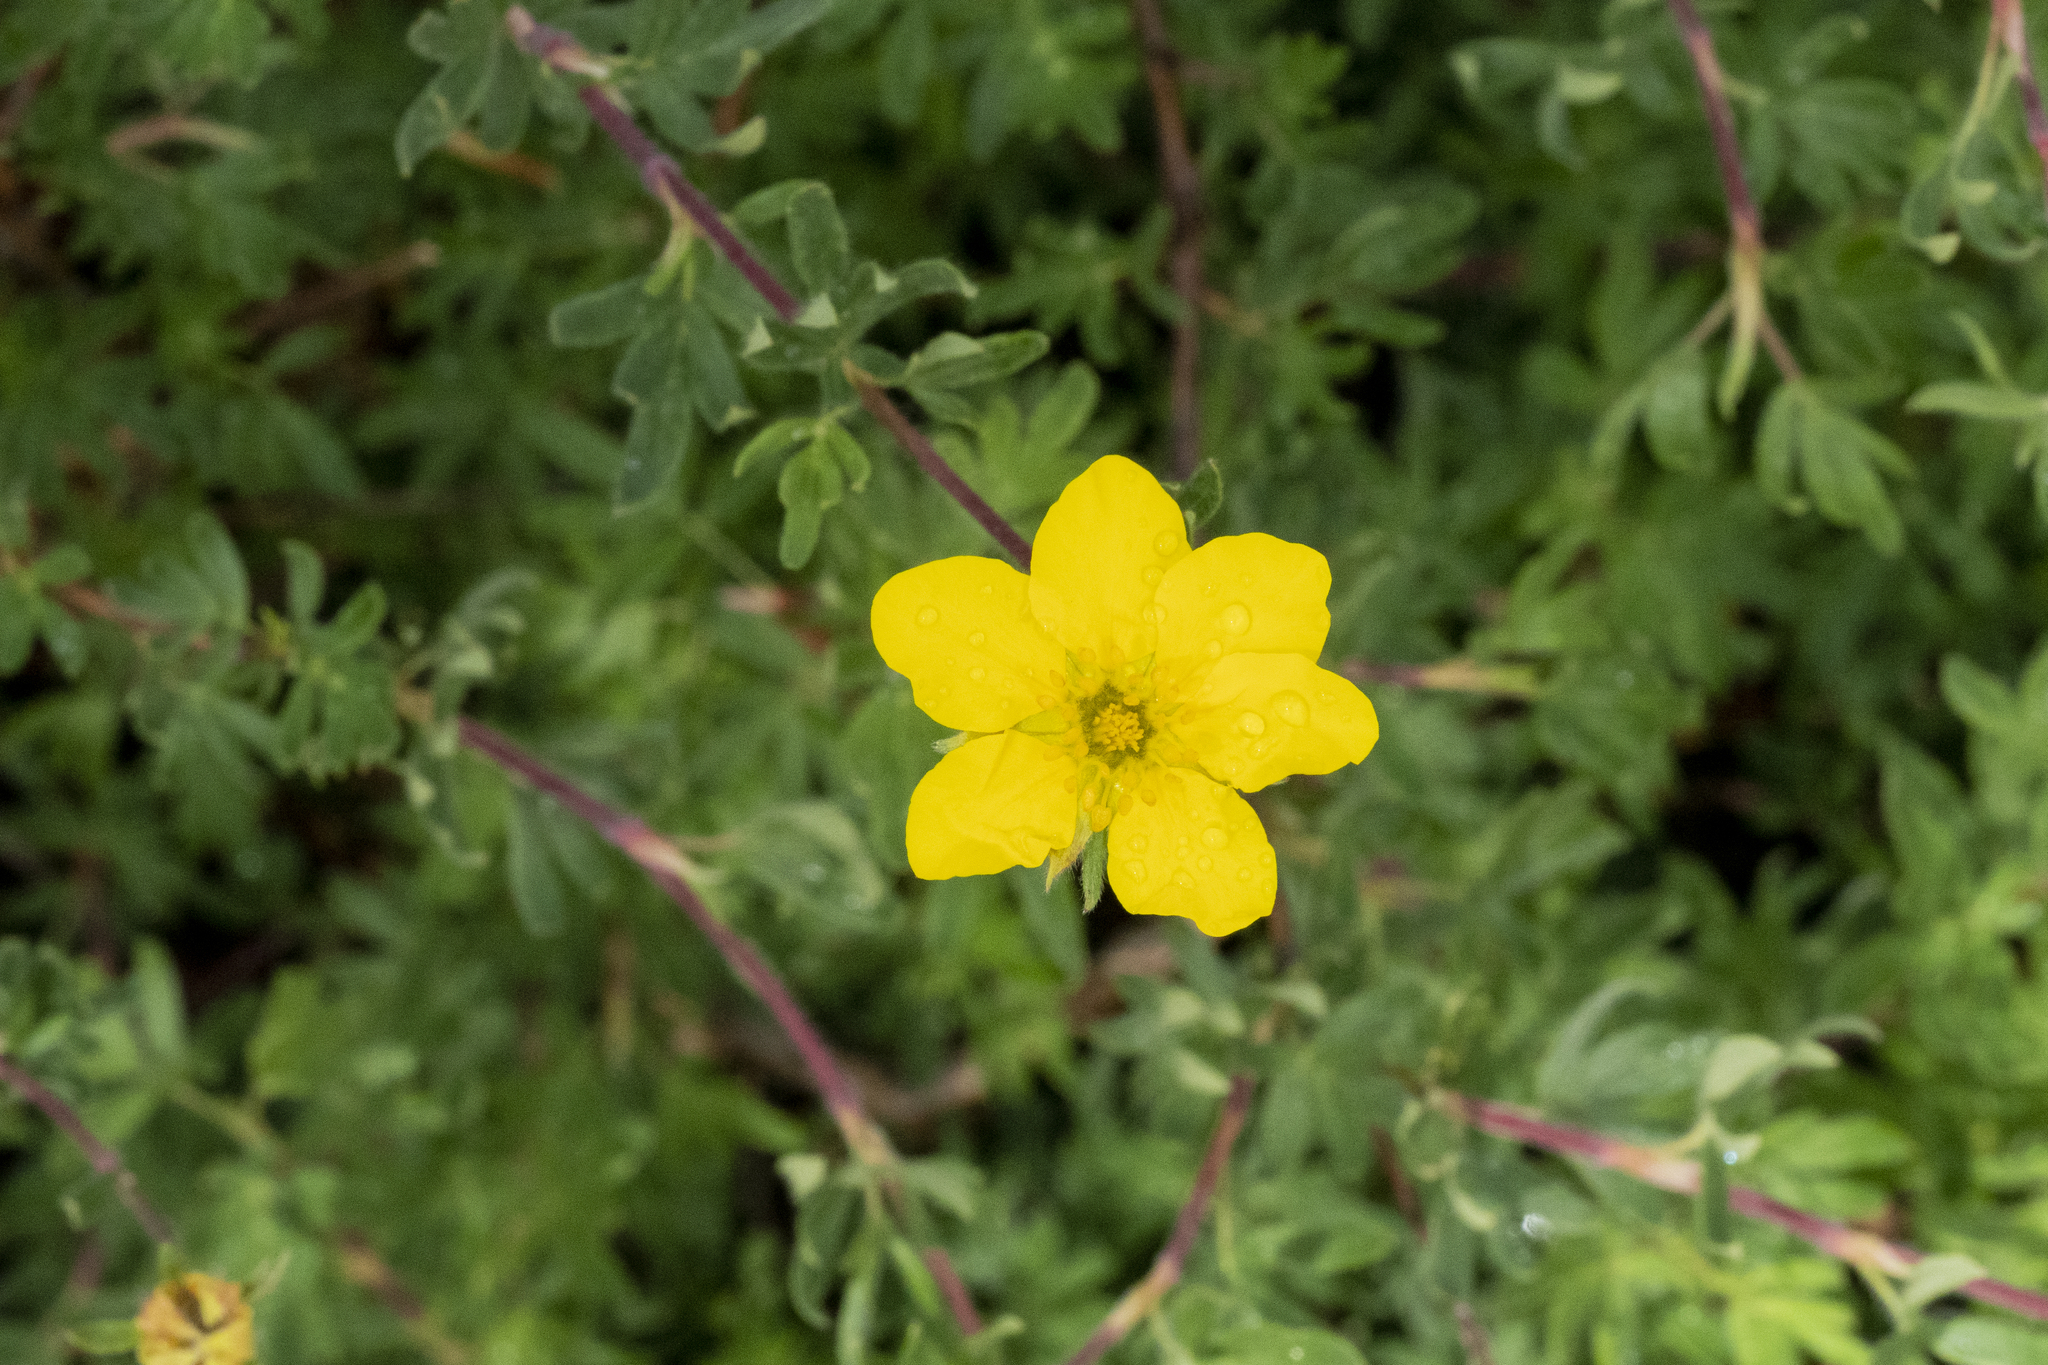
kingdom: Plantae
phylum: Tracheophyta
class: Magnoliopsida
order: Rosales
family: Rosaceae
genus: Dasiphora
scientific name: Dasiphora fruticosa
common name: Shrubby cinquefoil
